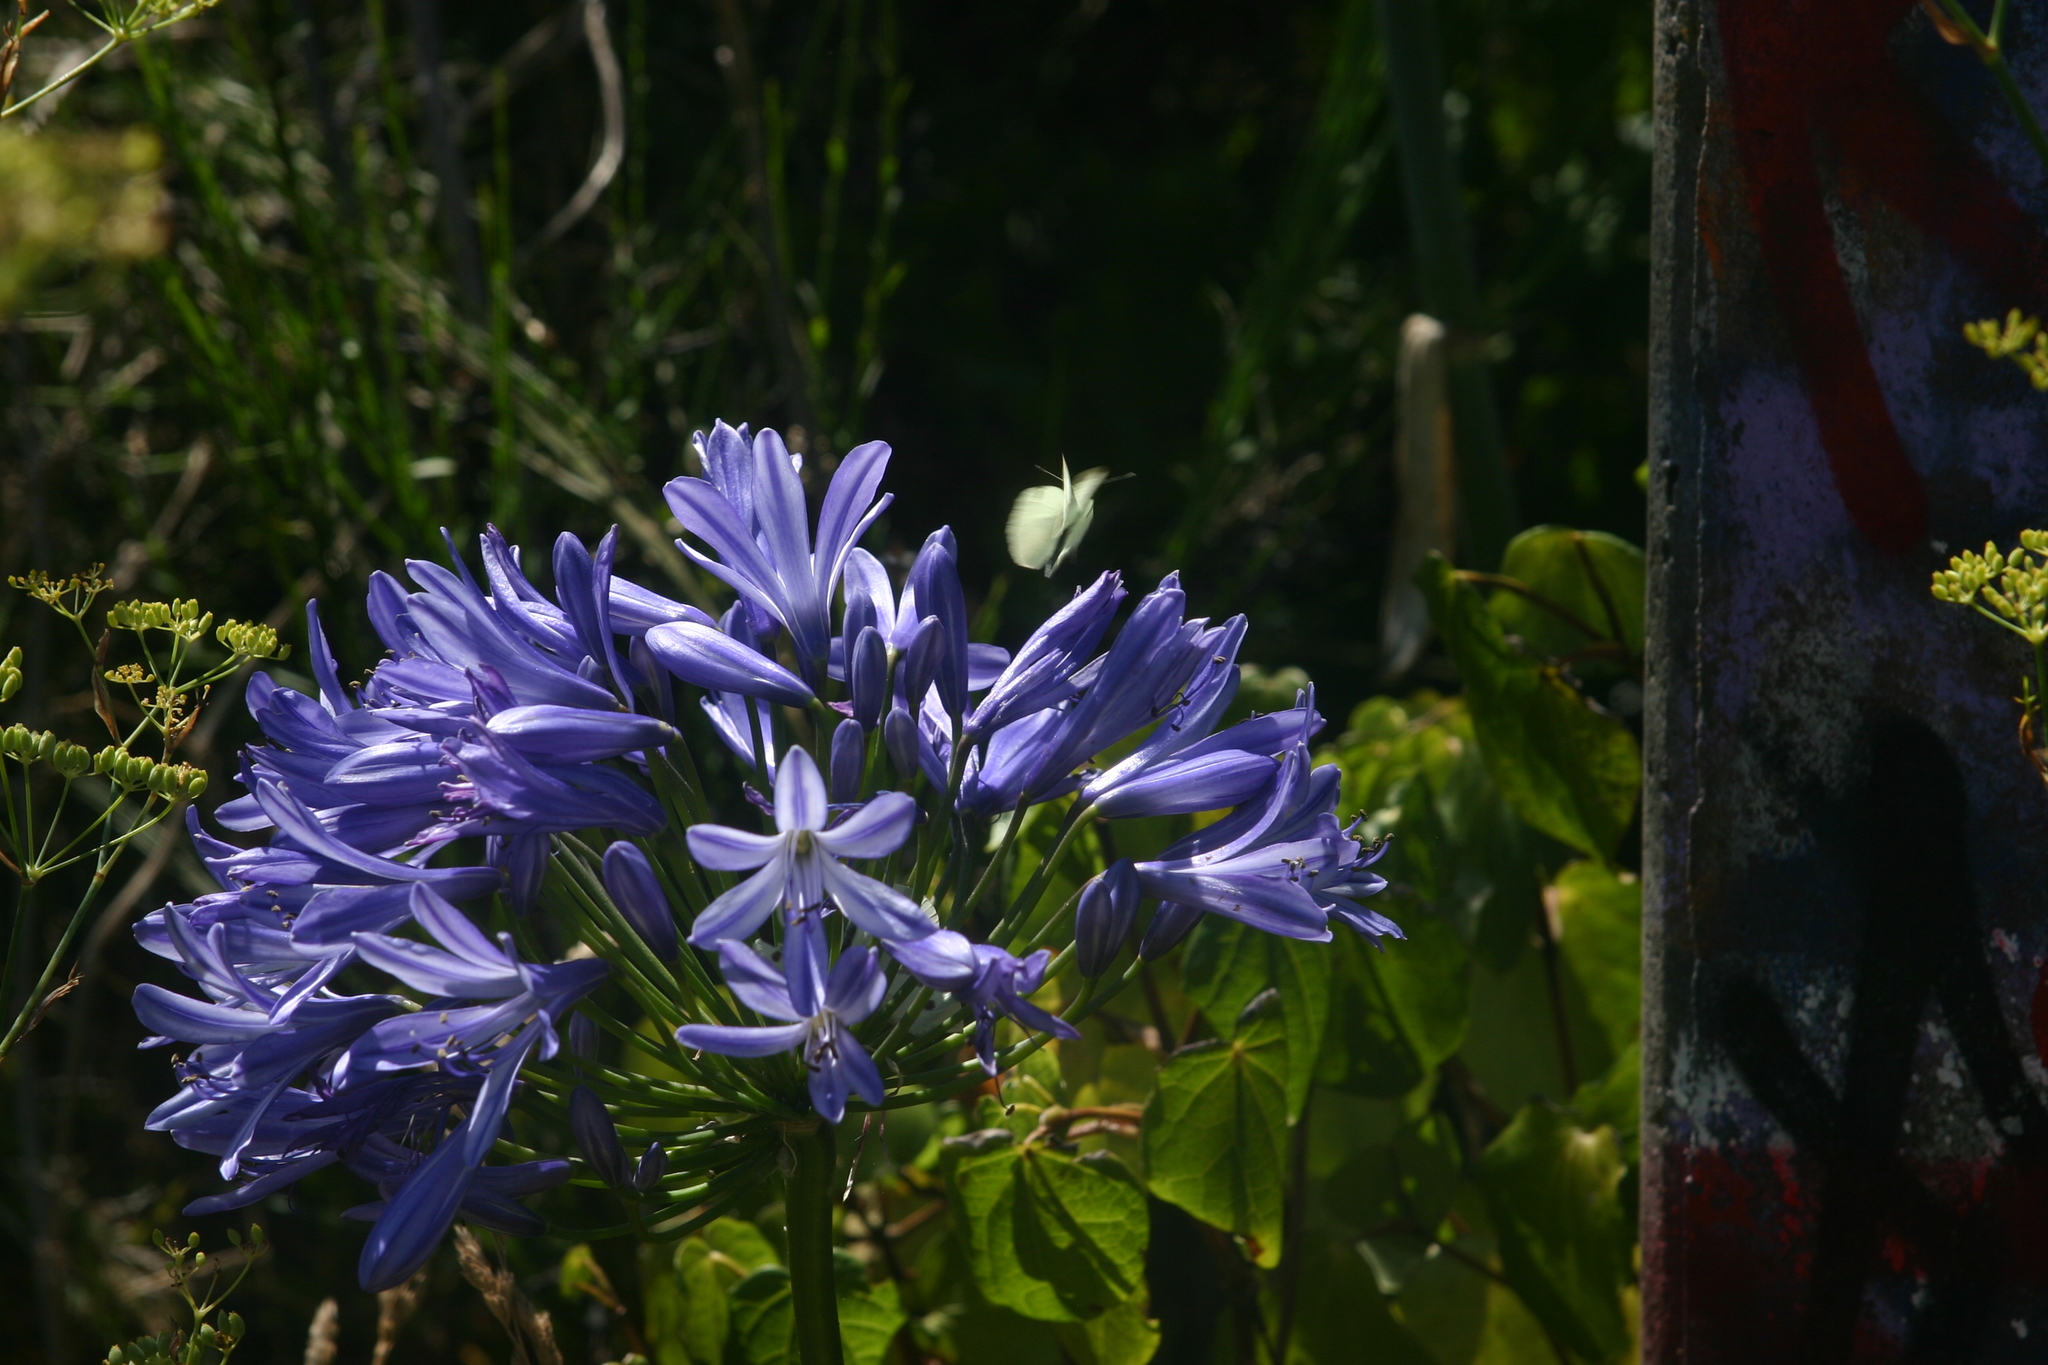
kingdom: Plantae
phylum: Tracheophyta
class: Liliopsida
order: Asparagales
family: Amaryllidaceae
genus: Agapanthus
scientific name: Agapanthus praecox
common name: African-lily
